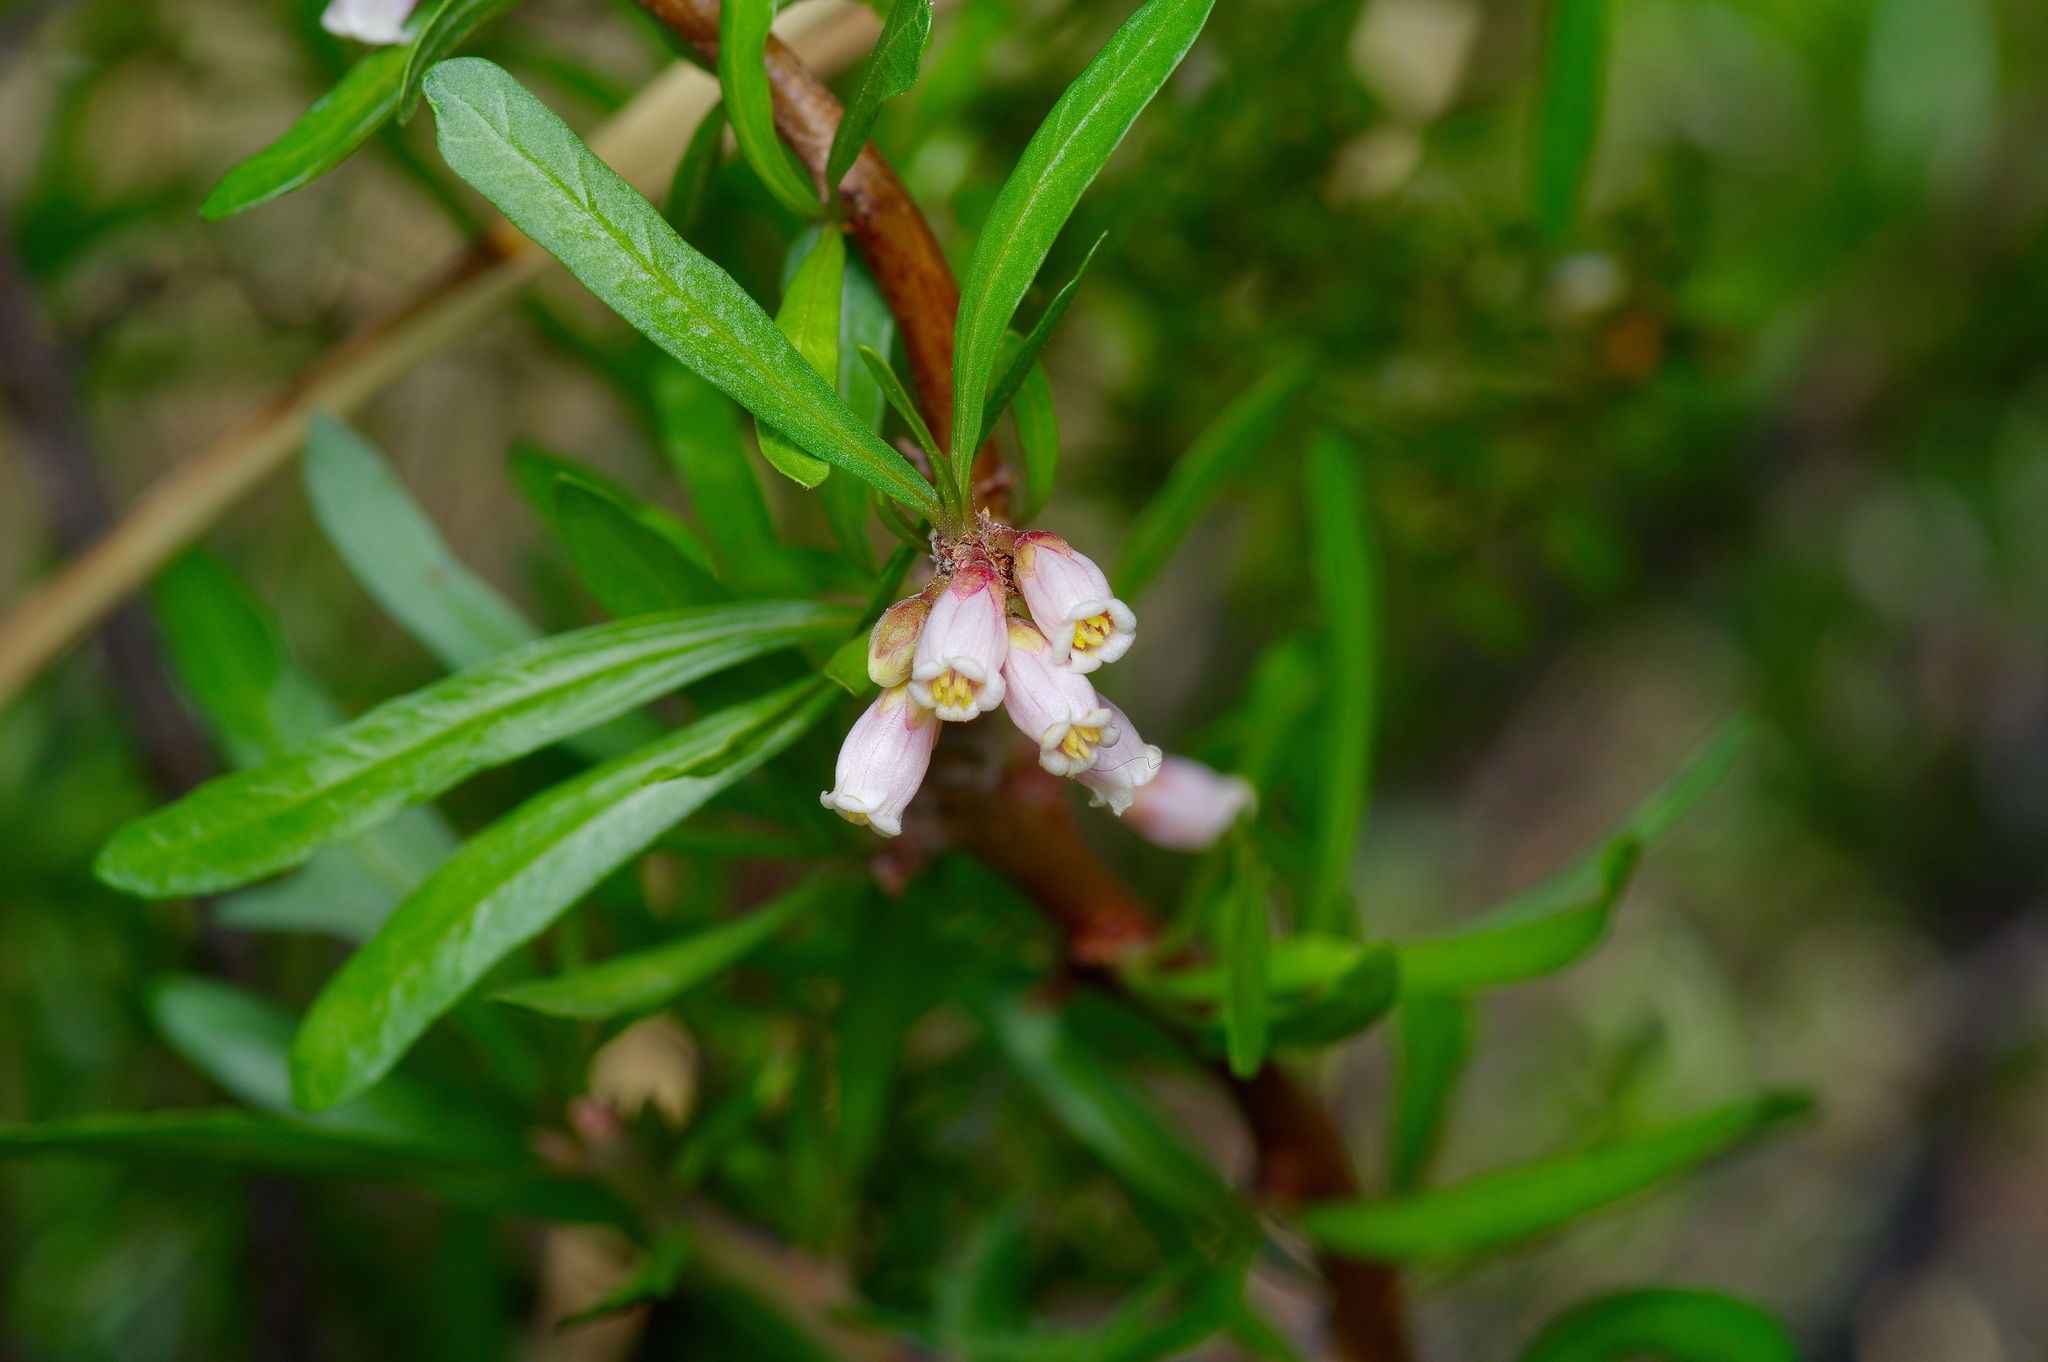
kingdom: Plantae
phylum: Tracheophyta
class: Magnoliopsida
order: Malpighiales
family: Euphorbiaceae
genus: Jatropha
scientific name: Jatropha dioica
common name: Leatherstem
